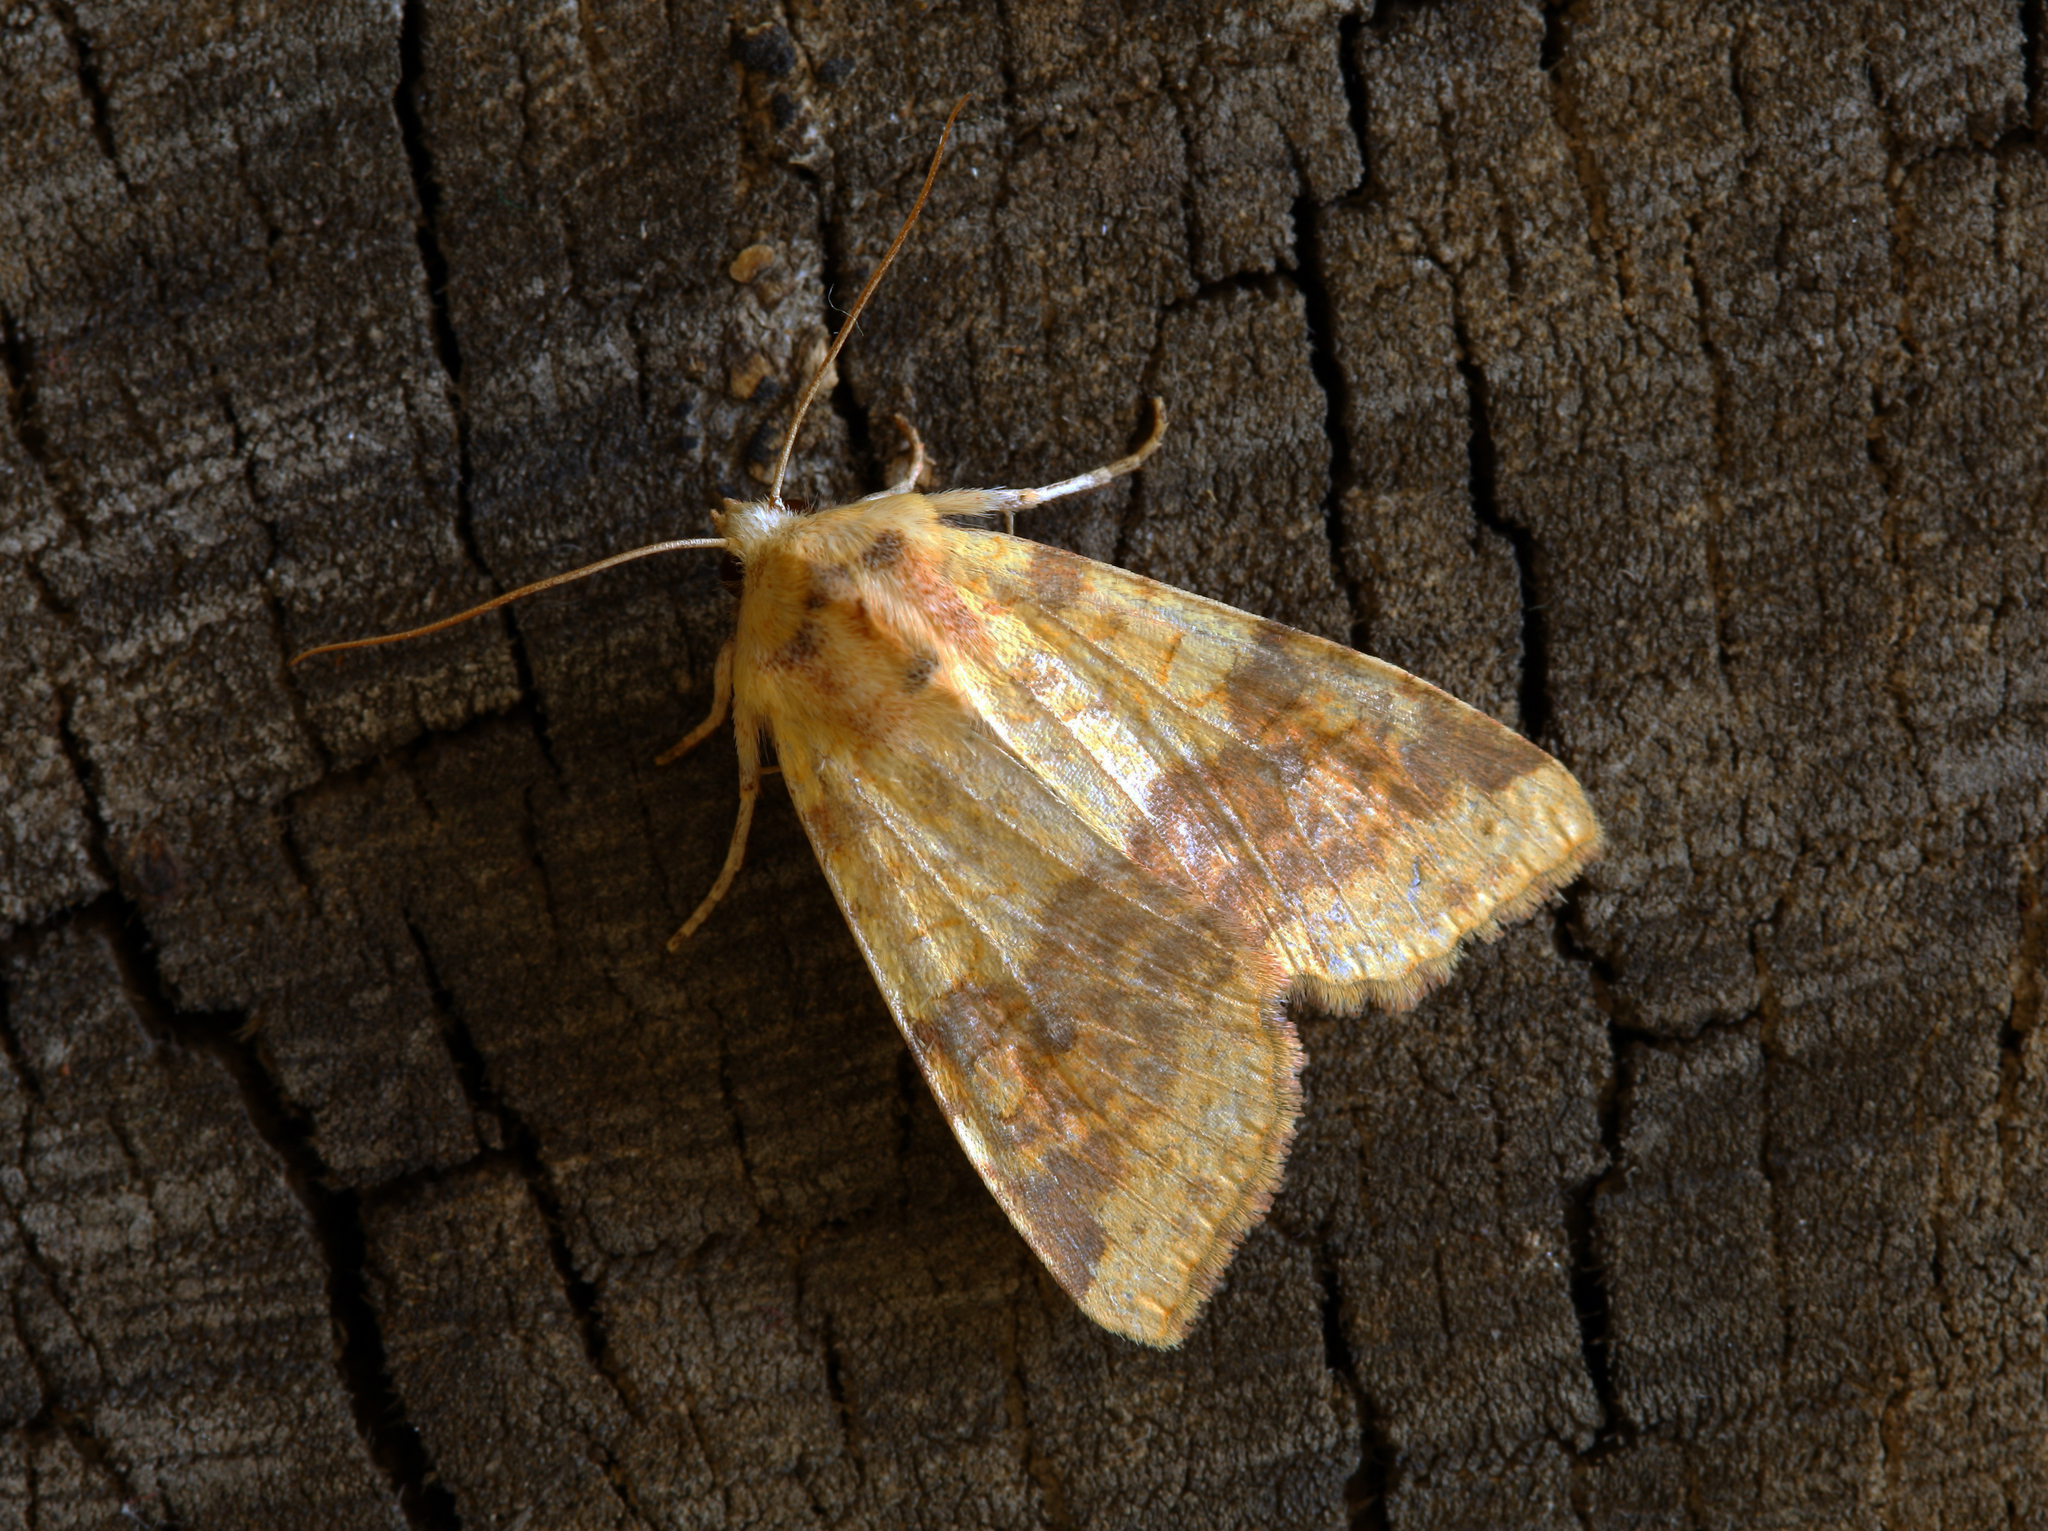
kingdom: Animalia
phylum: Arthropoda
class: Insecta
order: Lepidoptera
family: Noctuidae
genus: Xanthia
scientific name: Xanthia tunicata
